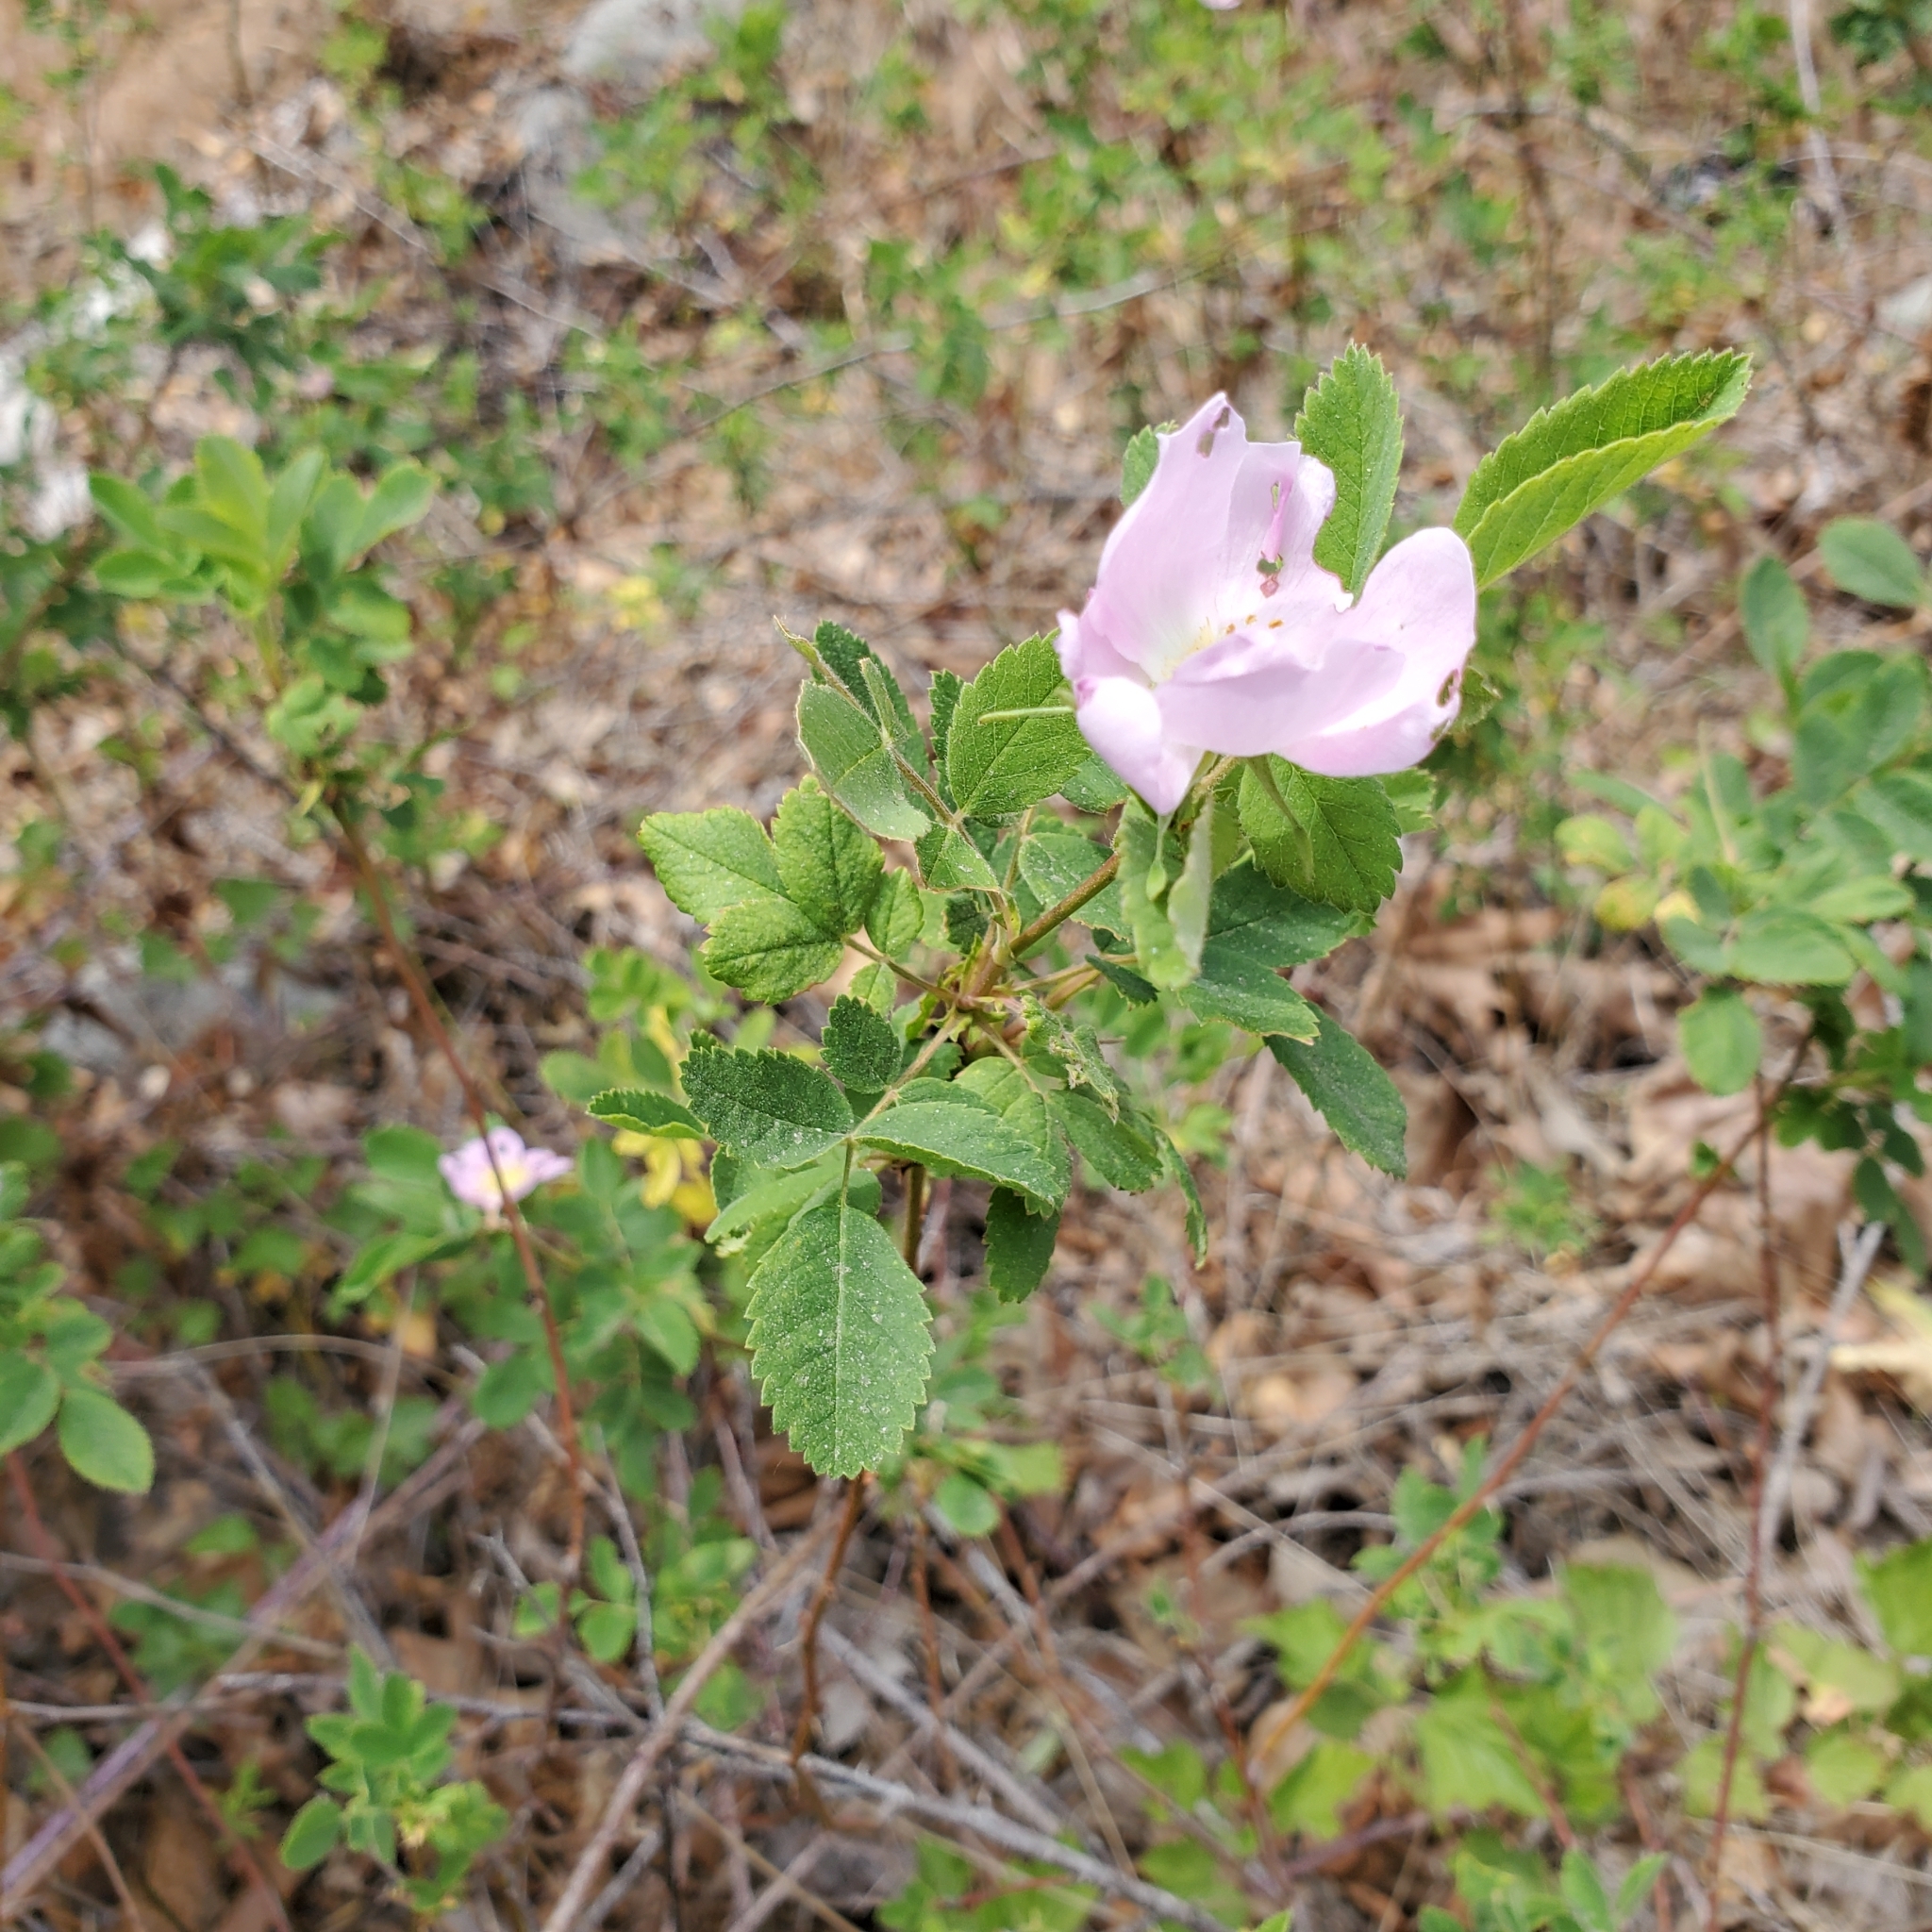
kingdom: Plantae
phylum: Tracheophyta
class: Magnoliopsida
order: Rosales
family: Rosaceae
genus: Rosa
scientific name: Rosa californica
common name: California rose
